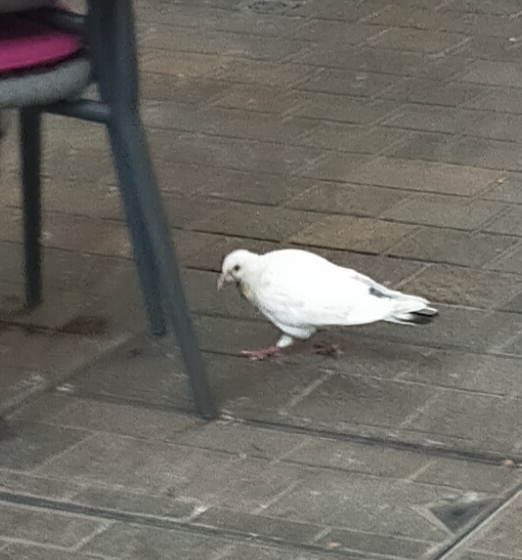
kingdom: Animalia
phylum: Chordata
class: Aves
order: Columbiformes
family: Columbidae
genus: Columba
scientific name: Columba livia
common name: Rock pigeon
